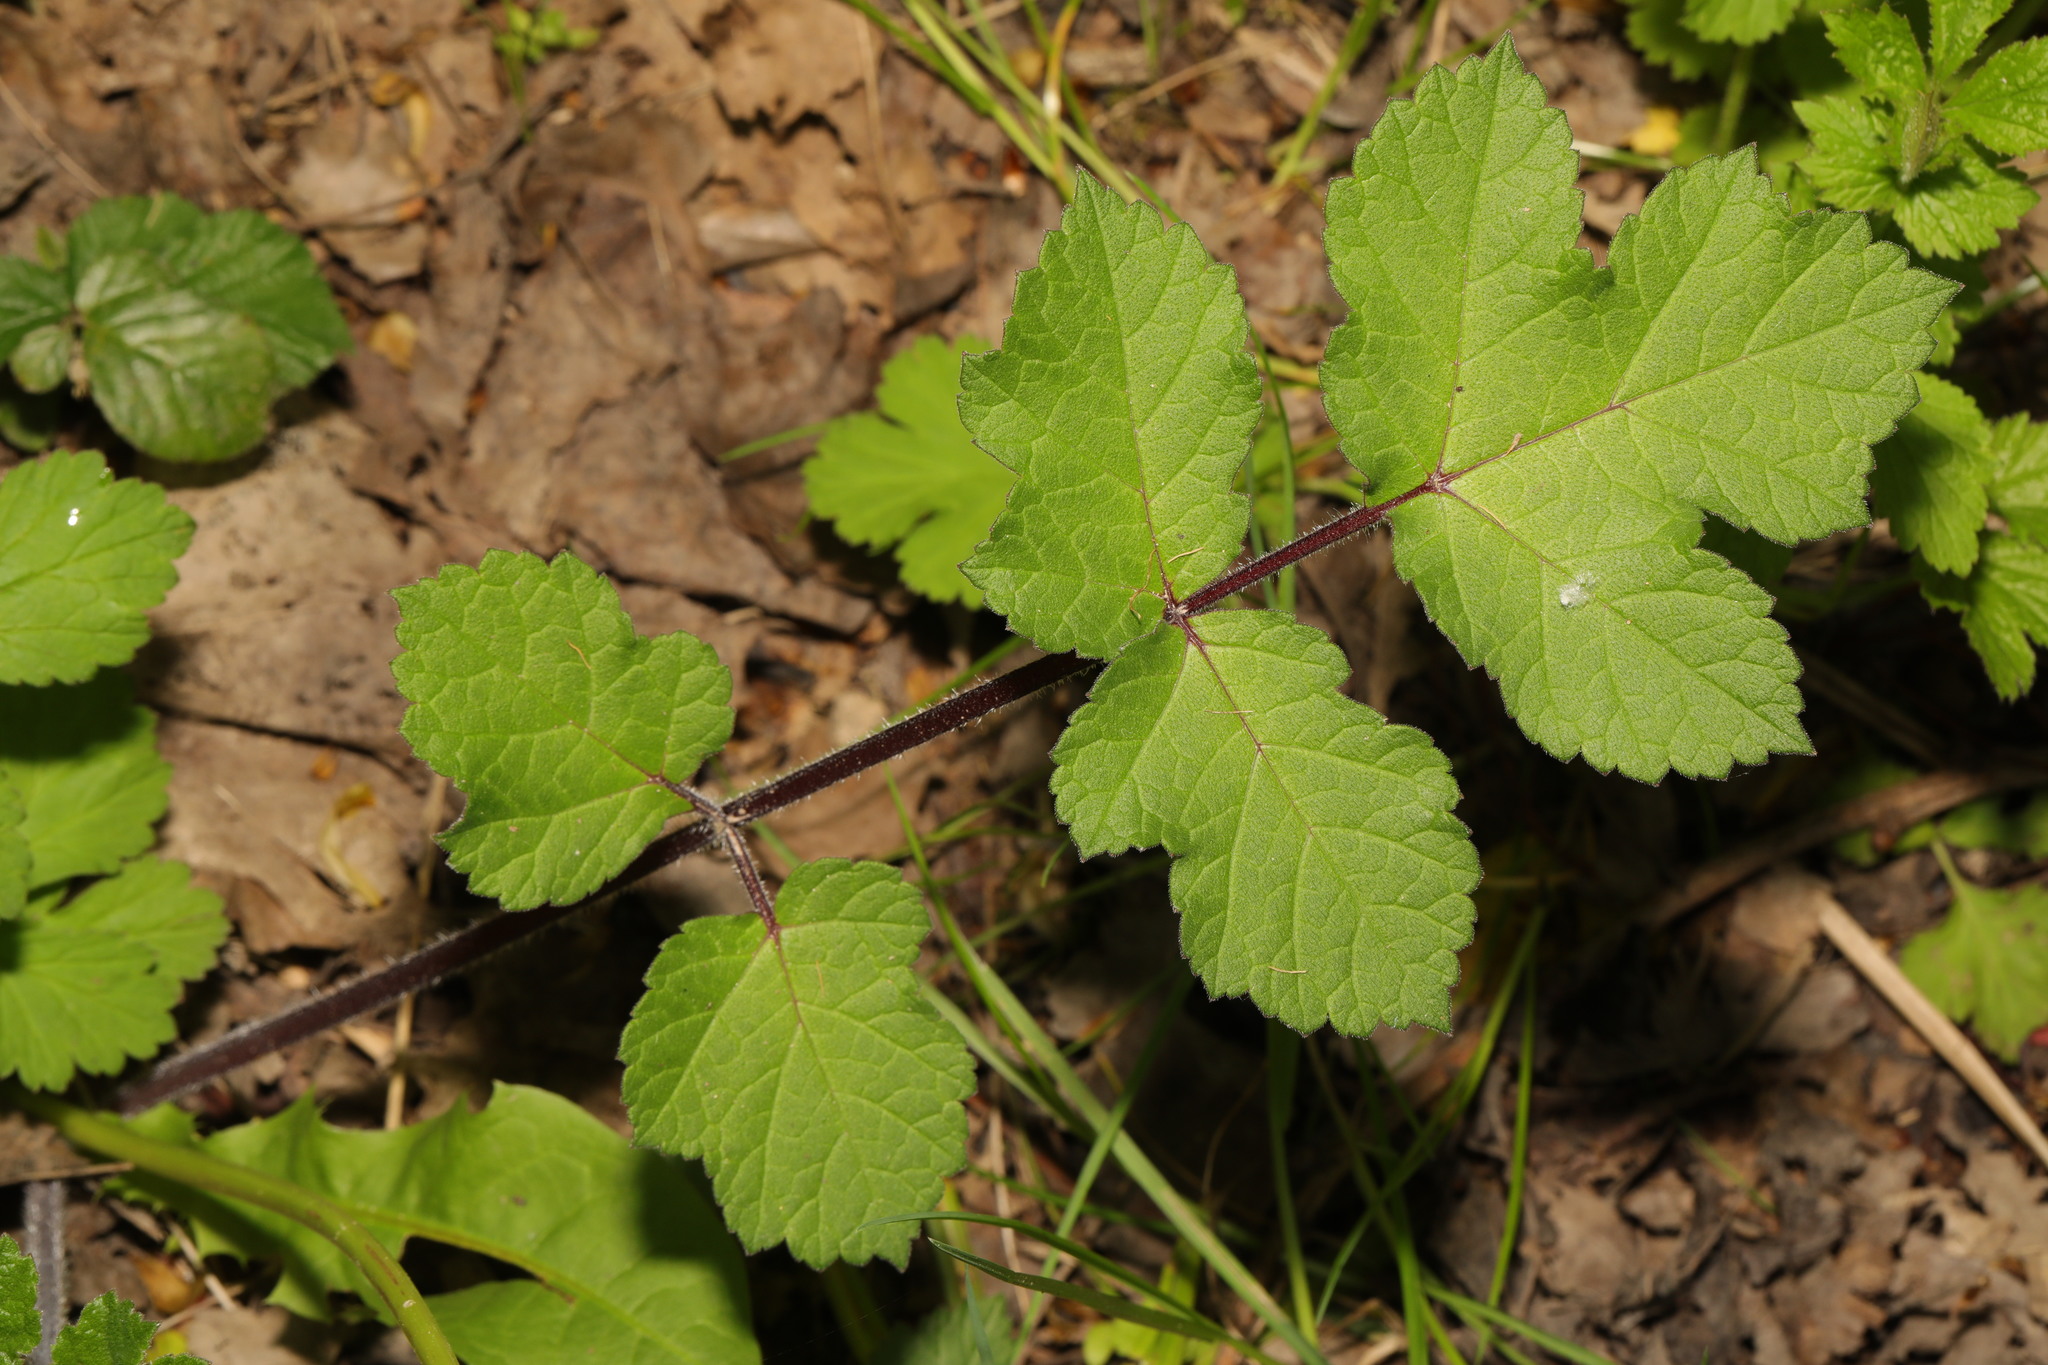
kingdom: Plantae
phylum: Tracheophyta
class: Magnoliopsida
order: Apiales
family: Apiaceae
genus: Heracleum
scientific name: Heracleum sphondylium
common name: Hogweed
